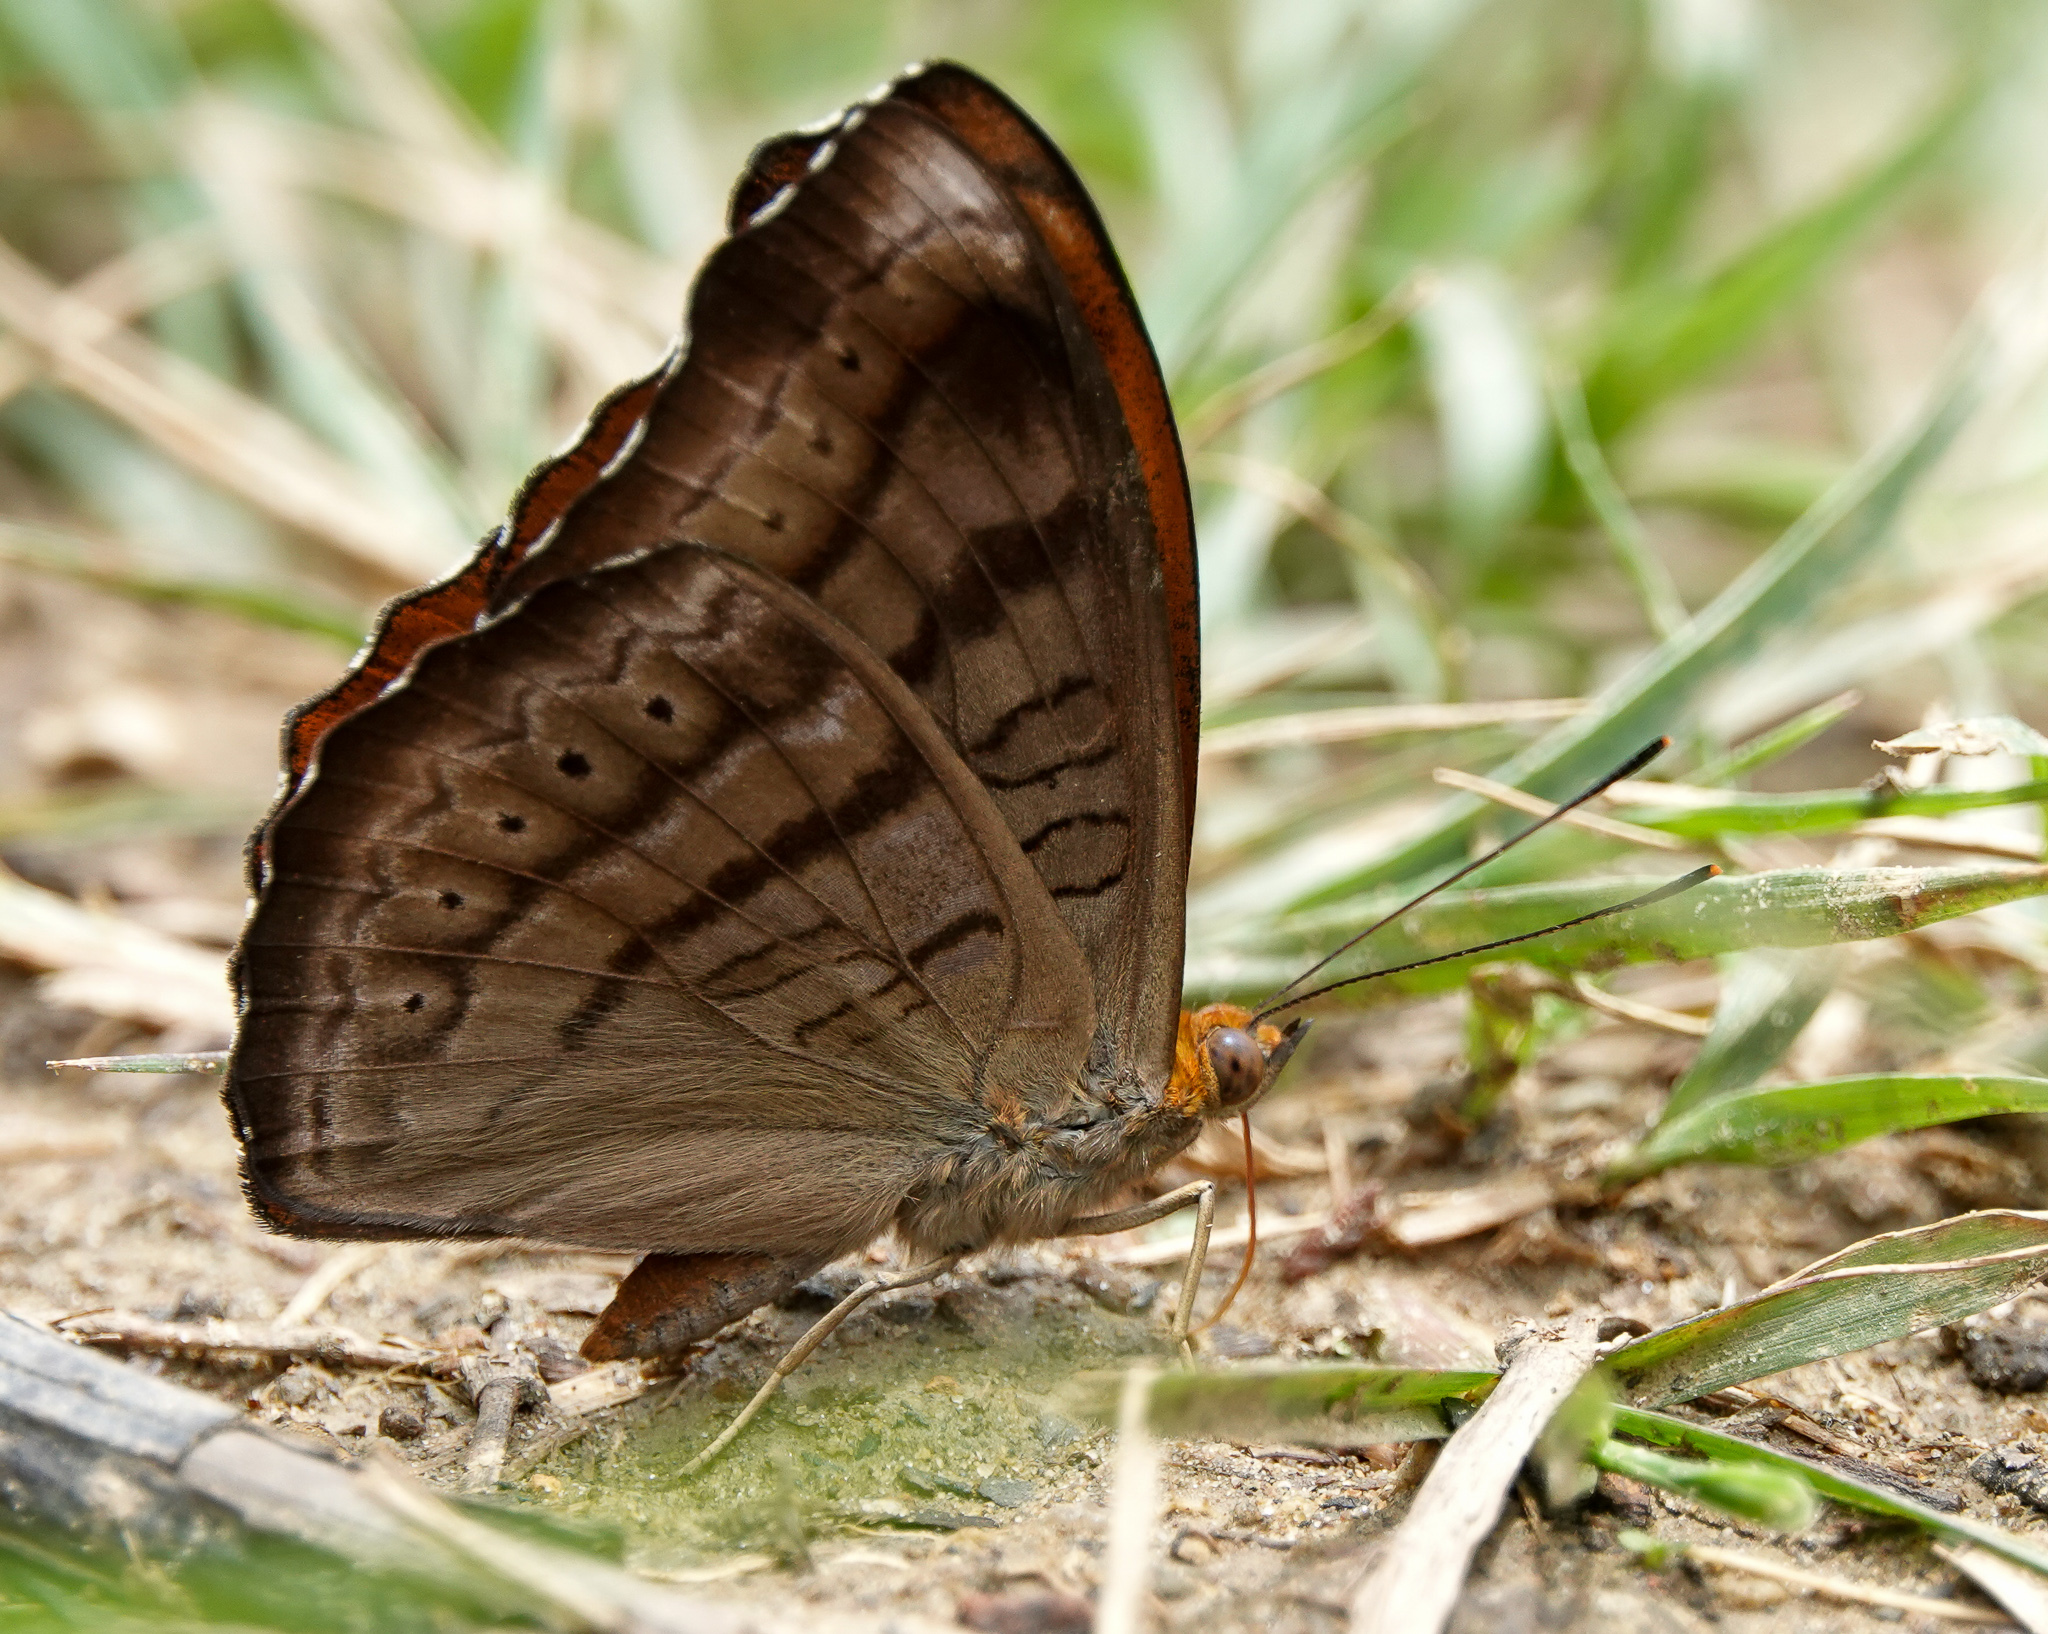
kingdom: Animalia
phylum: Arthropoda
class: Insecta
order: Lepidoptera
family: Nymphalidae
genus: Pseudergolis
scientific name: Pseudergolis wedah
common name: Tabby
